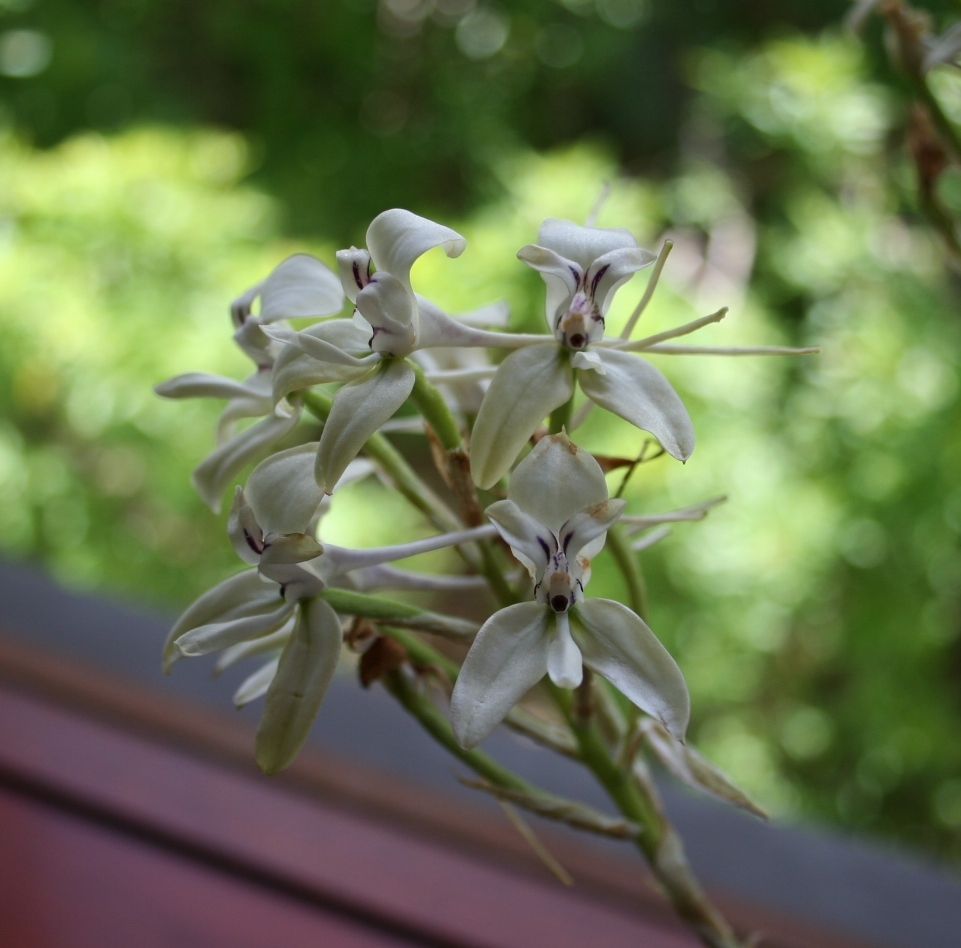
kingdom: Plantae
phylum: Tracheophyta
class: Liliopsida
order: Asparagales
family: Orchidaceae
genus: Disa
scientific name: Disa harveyana
